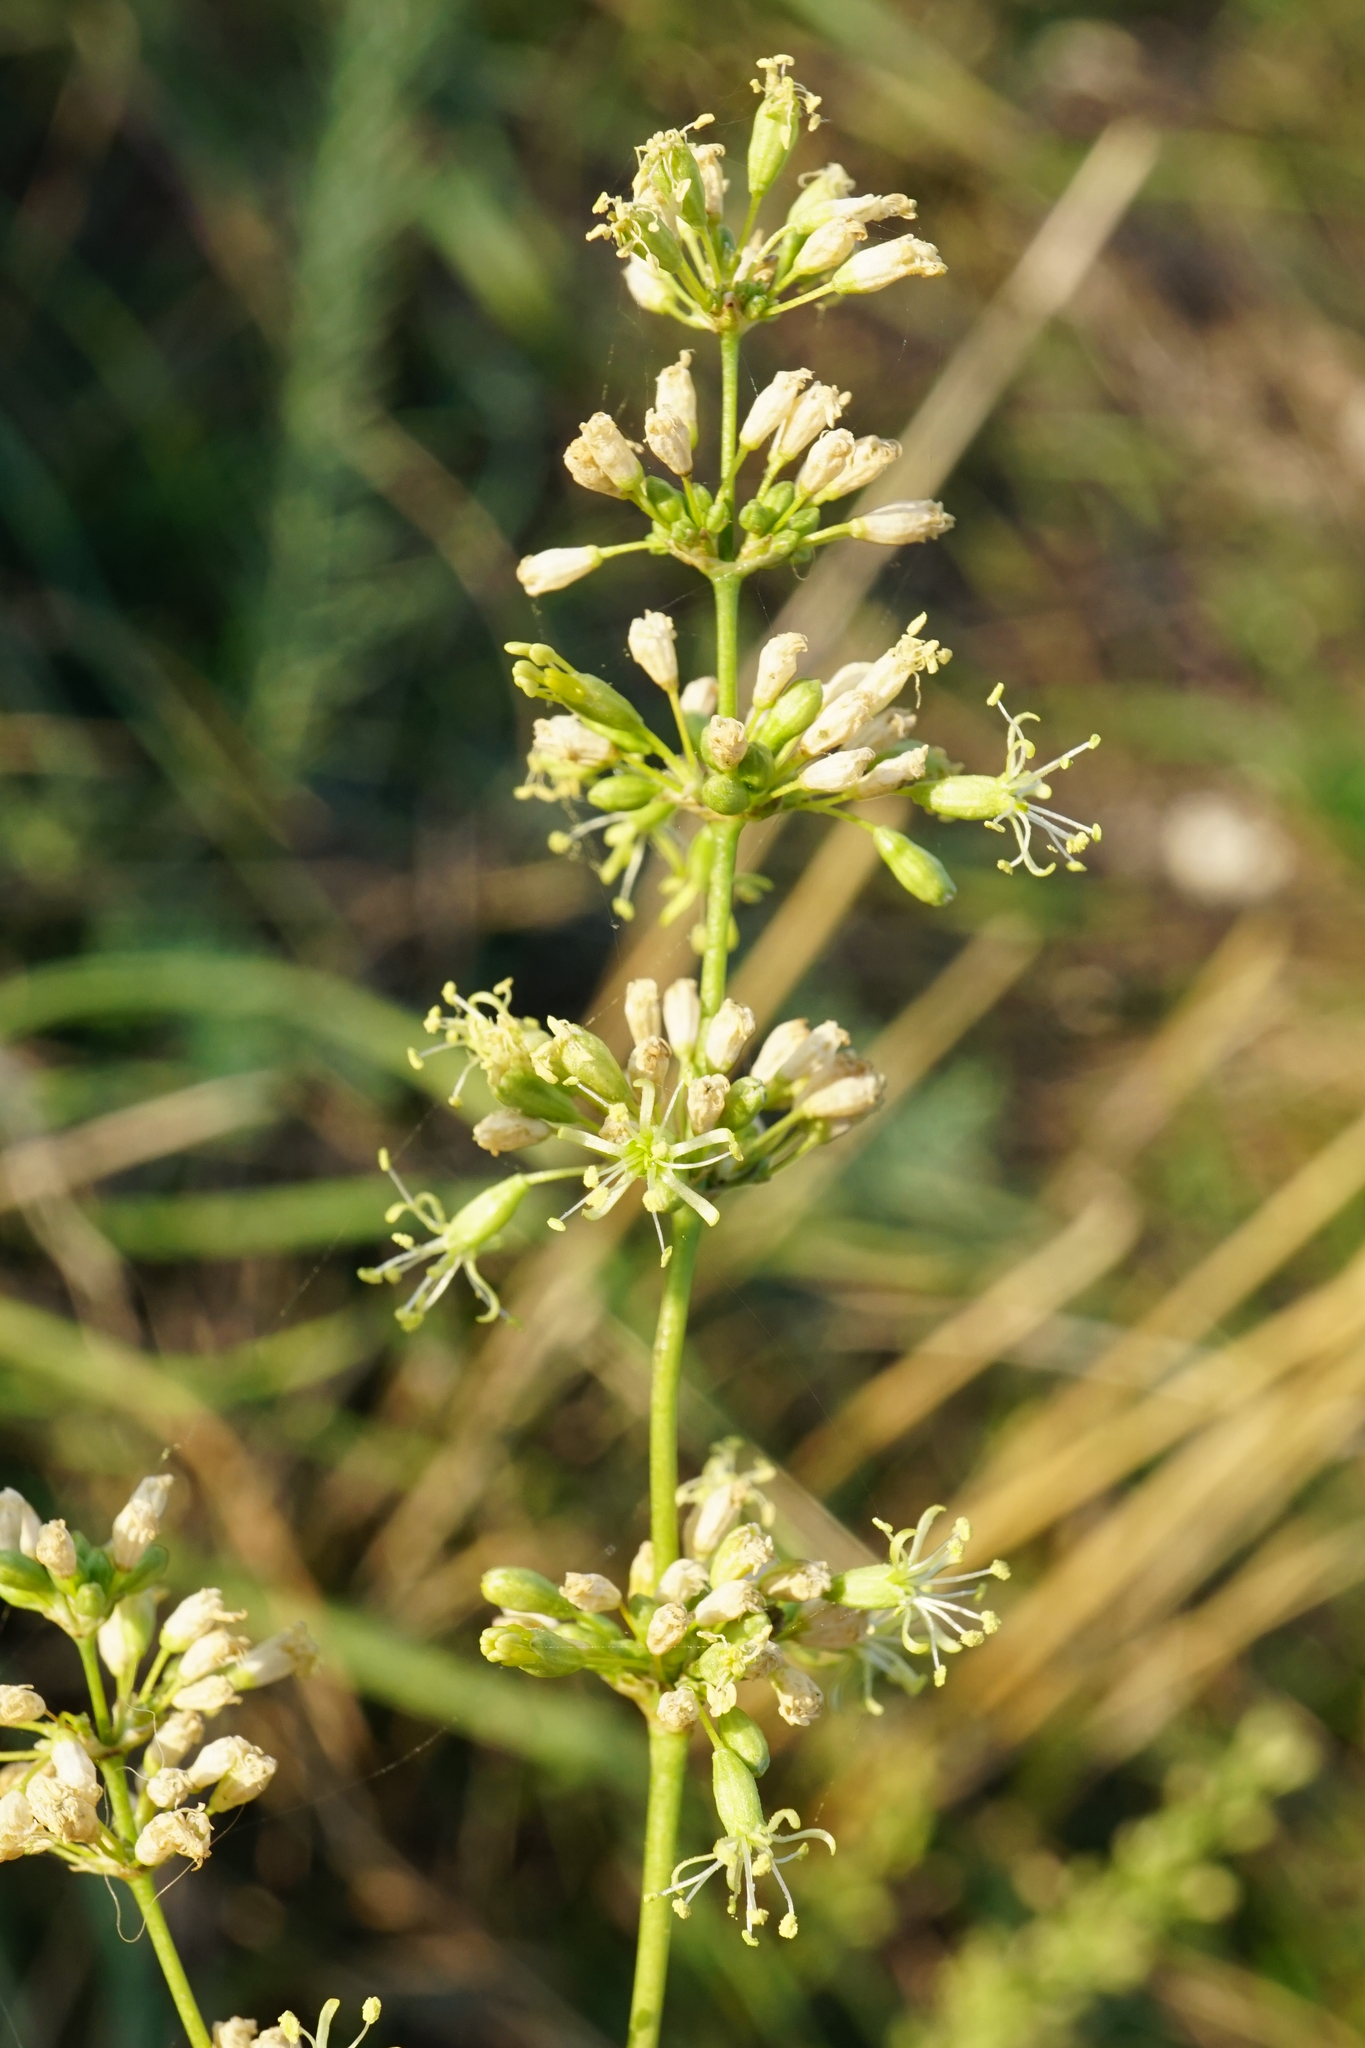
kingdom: Plantae
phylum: Tracheophyta
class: Magnoliopsida
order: Caryophyllales
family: Caryophyllaceae
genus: Silene
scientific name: Silene otites
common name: Spanish catchfly
